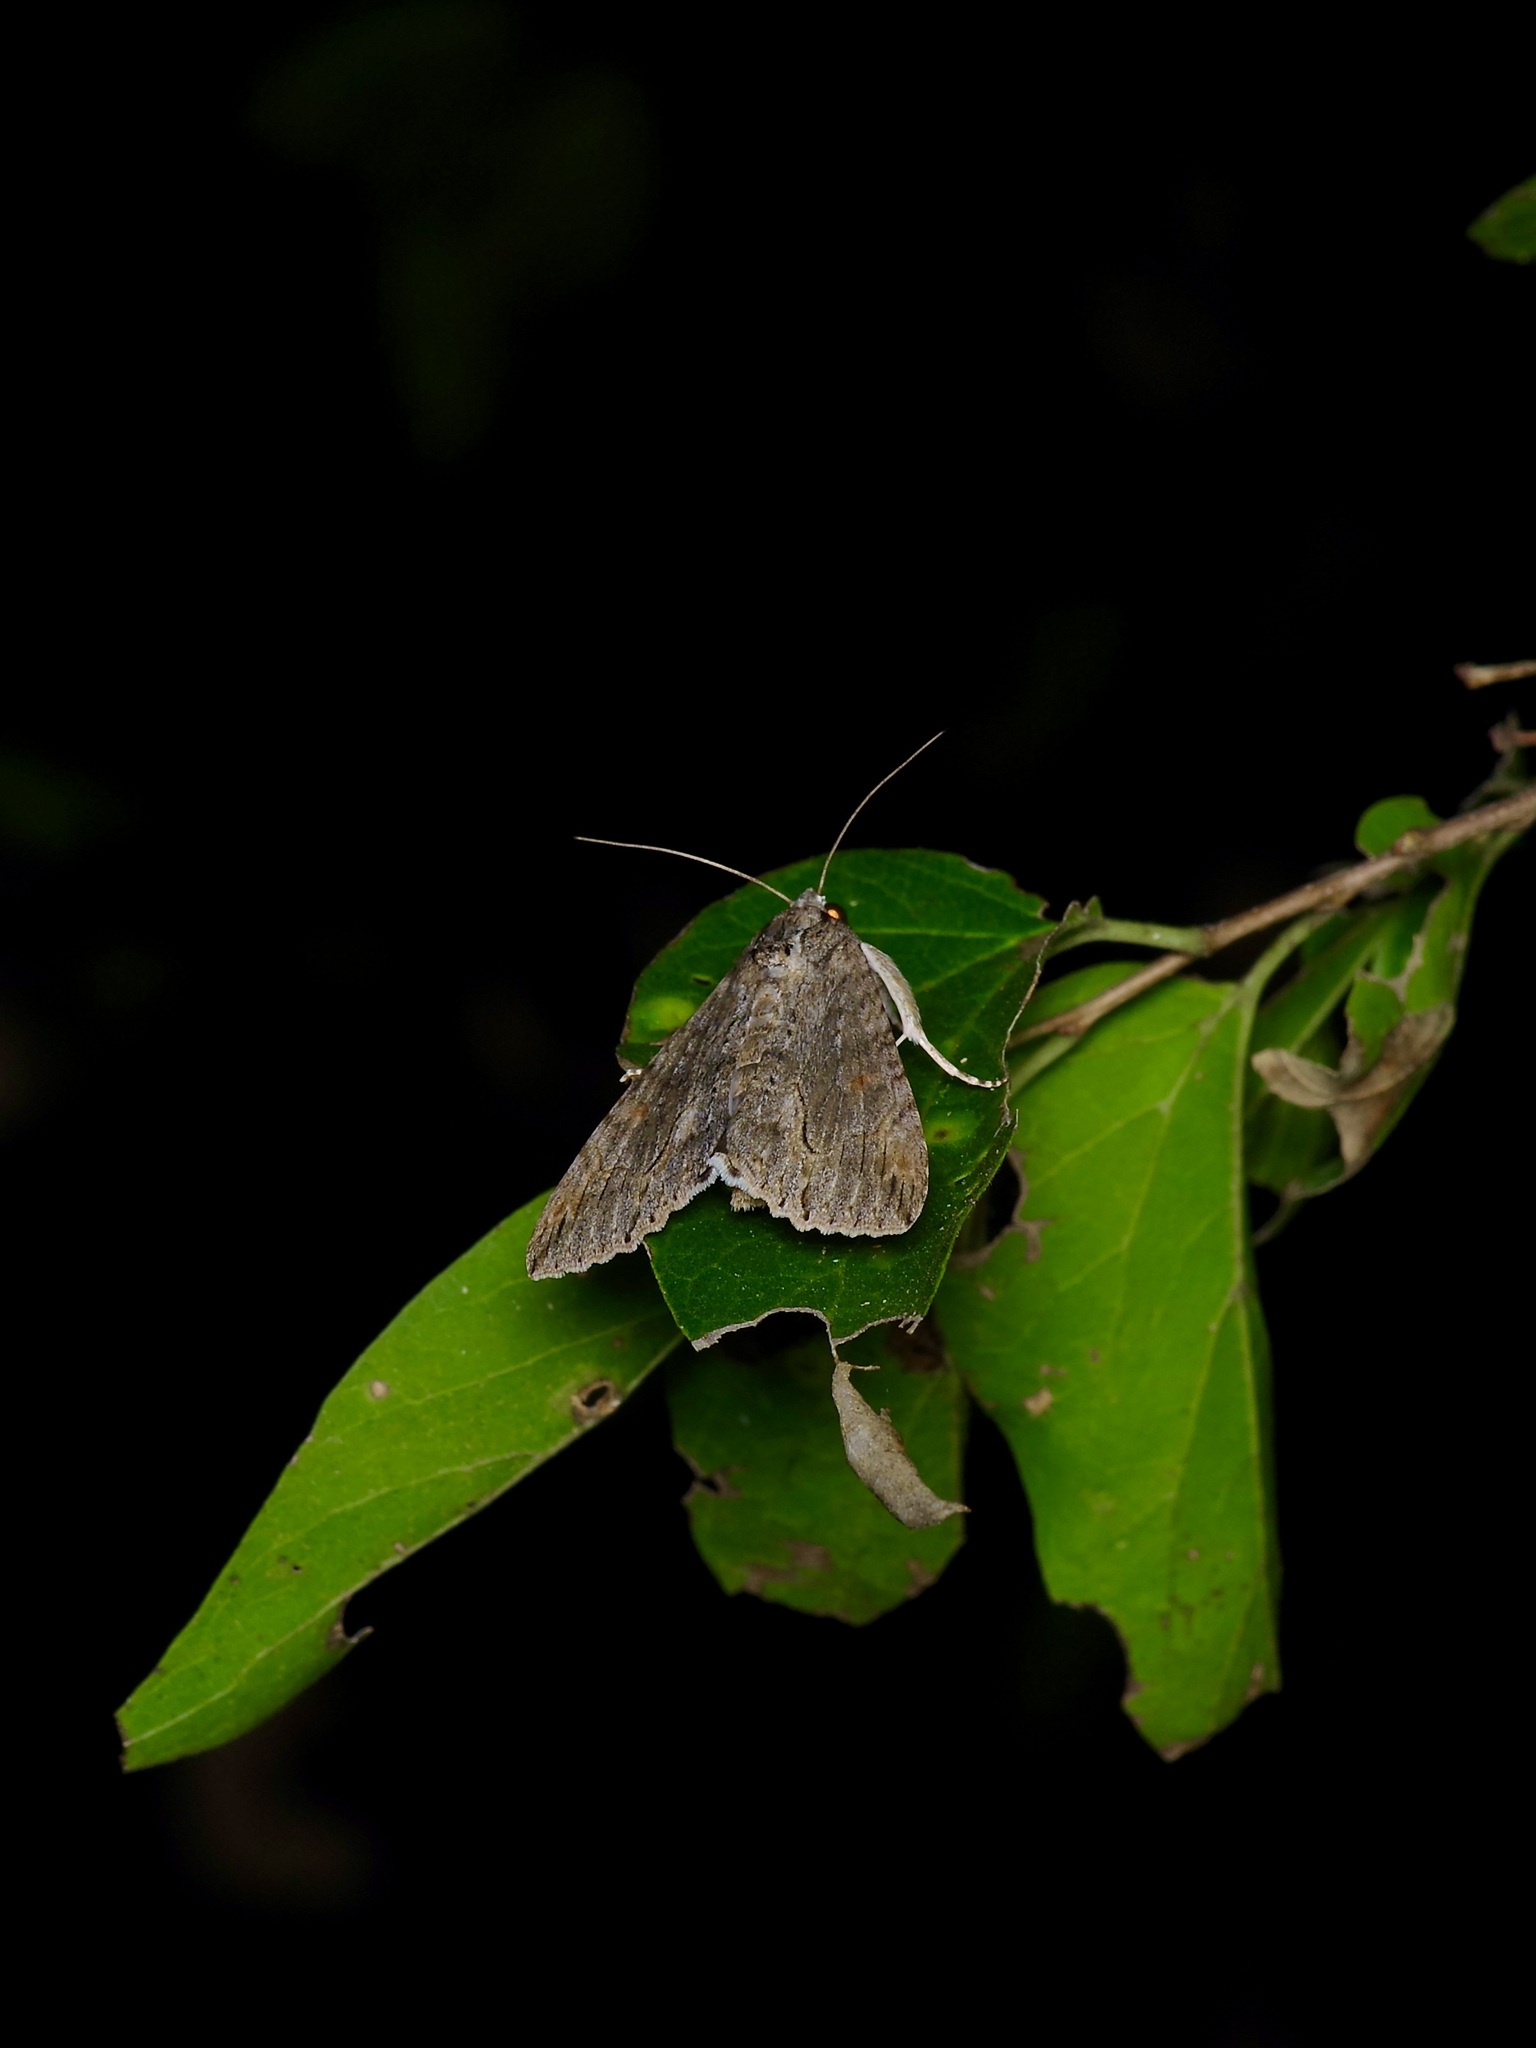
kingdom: Animalia
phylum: Arthropoda
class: Insecta
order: Lepidoptera
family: Erebidae
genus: Melipotis
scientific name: Melipotis acontioides
